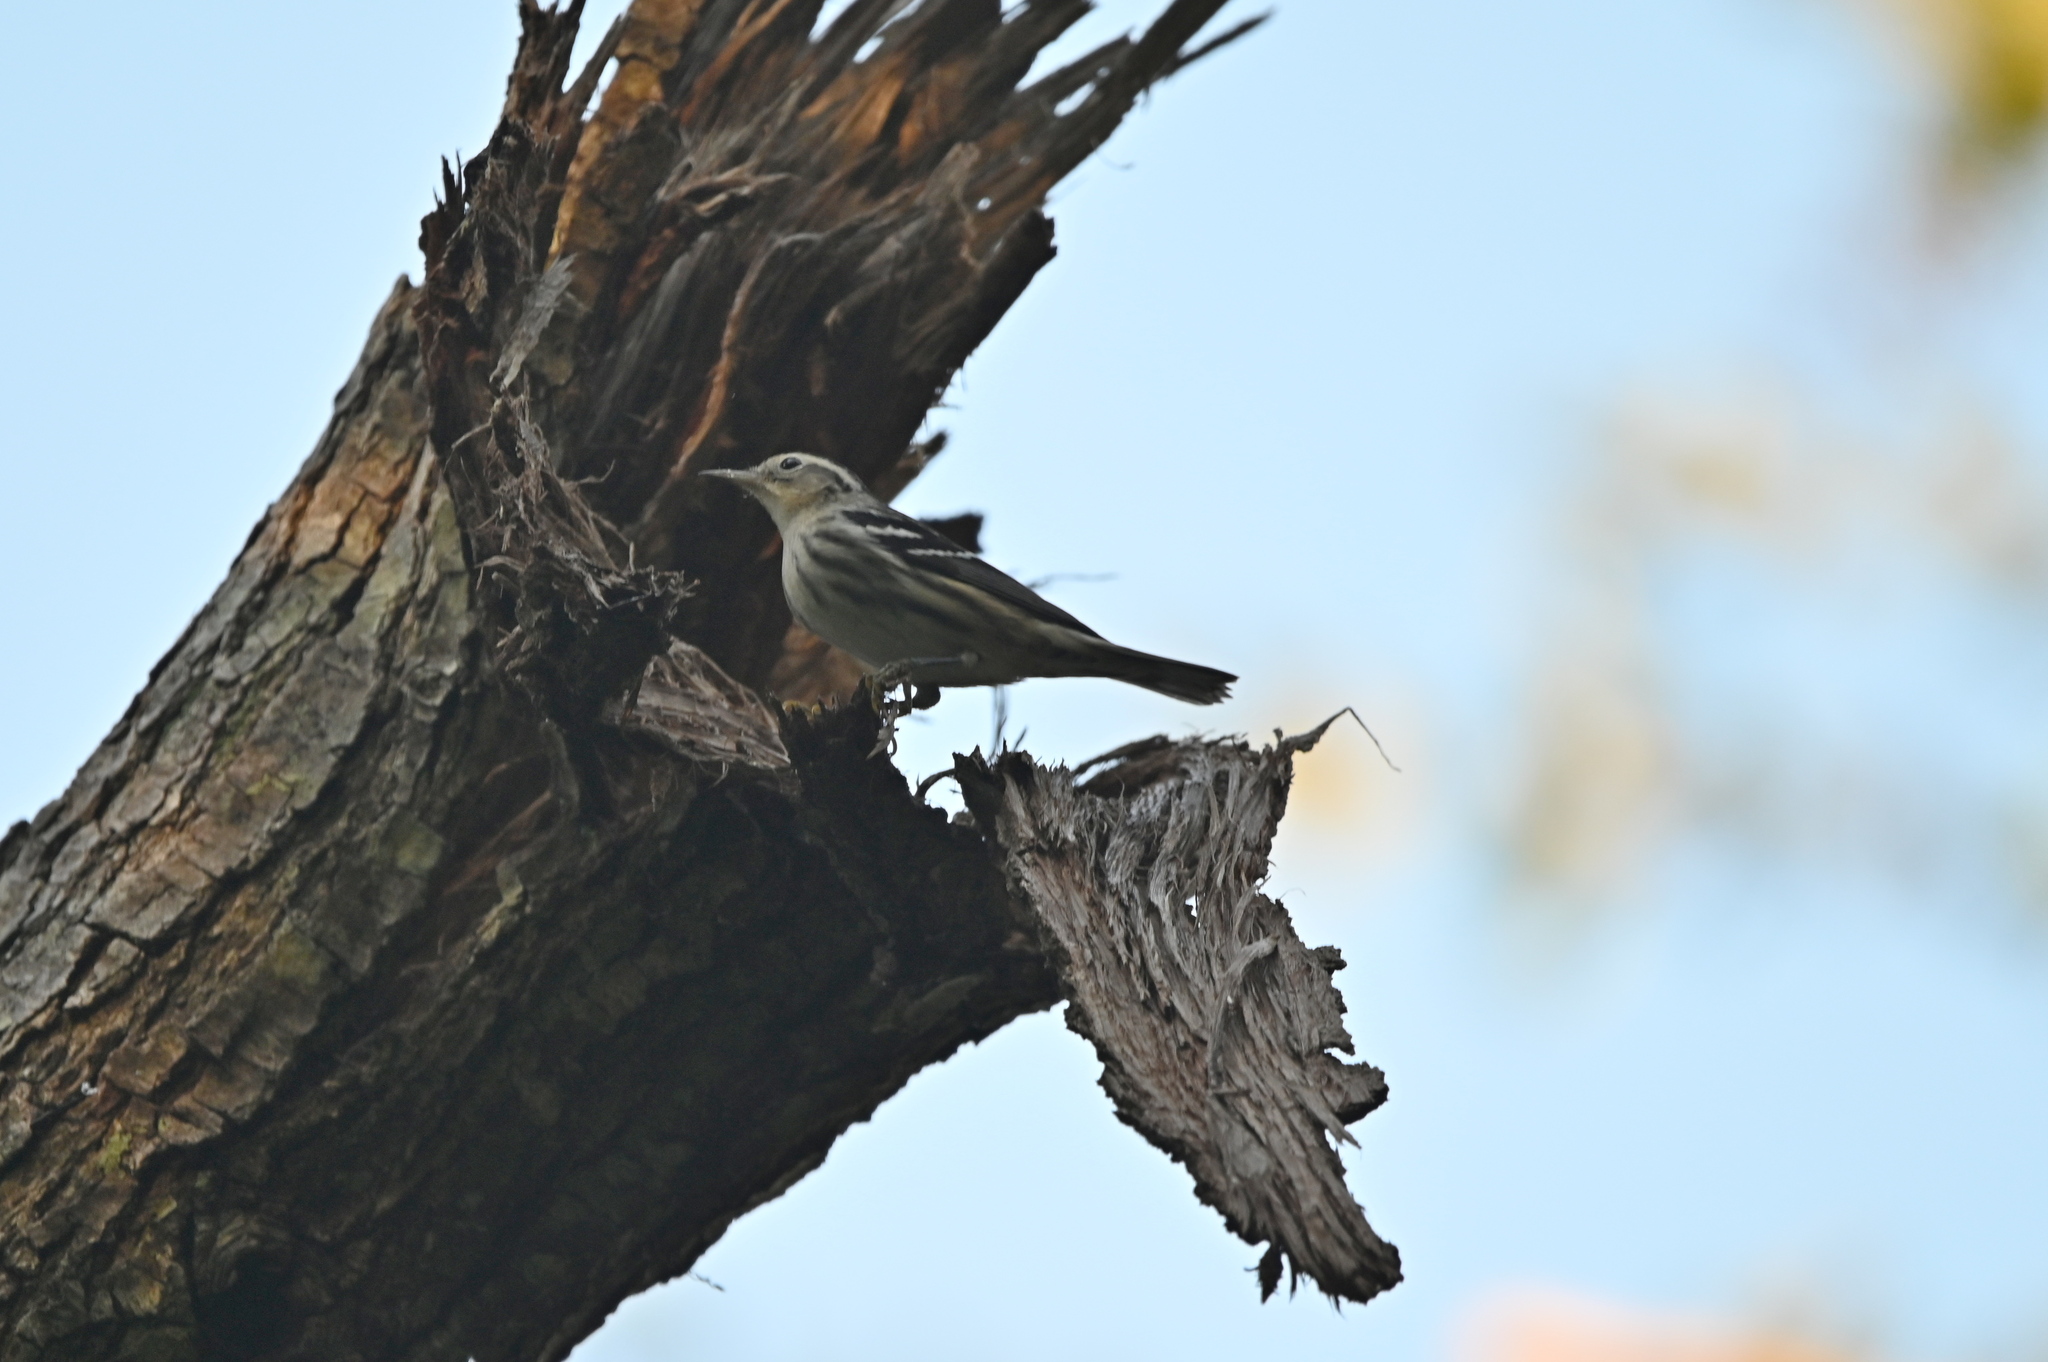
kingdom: Animalia
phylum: Chordata
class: Aves
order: Passeriformes
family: Parulidae
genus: Mniotilta
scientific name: Mniotilta varia
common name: Black-and-white warbler
